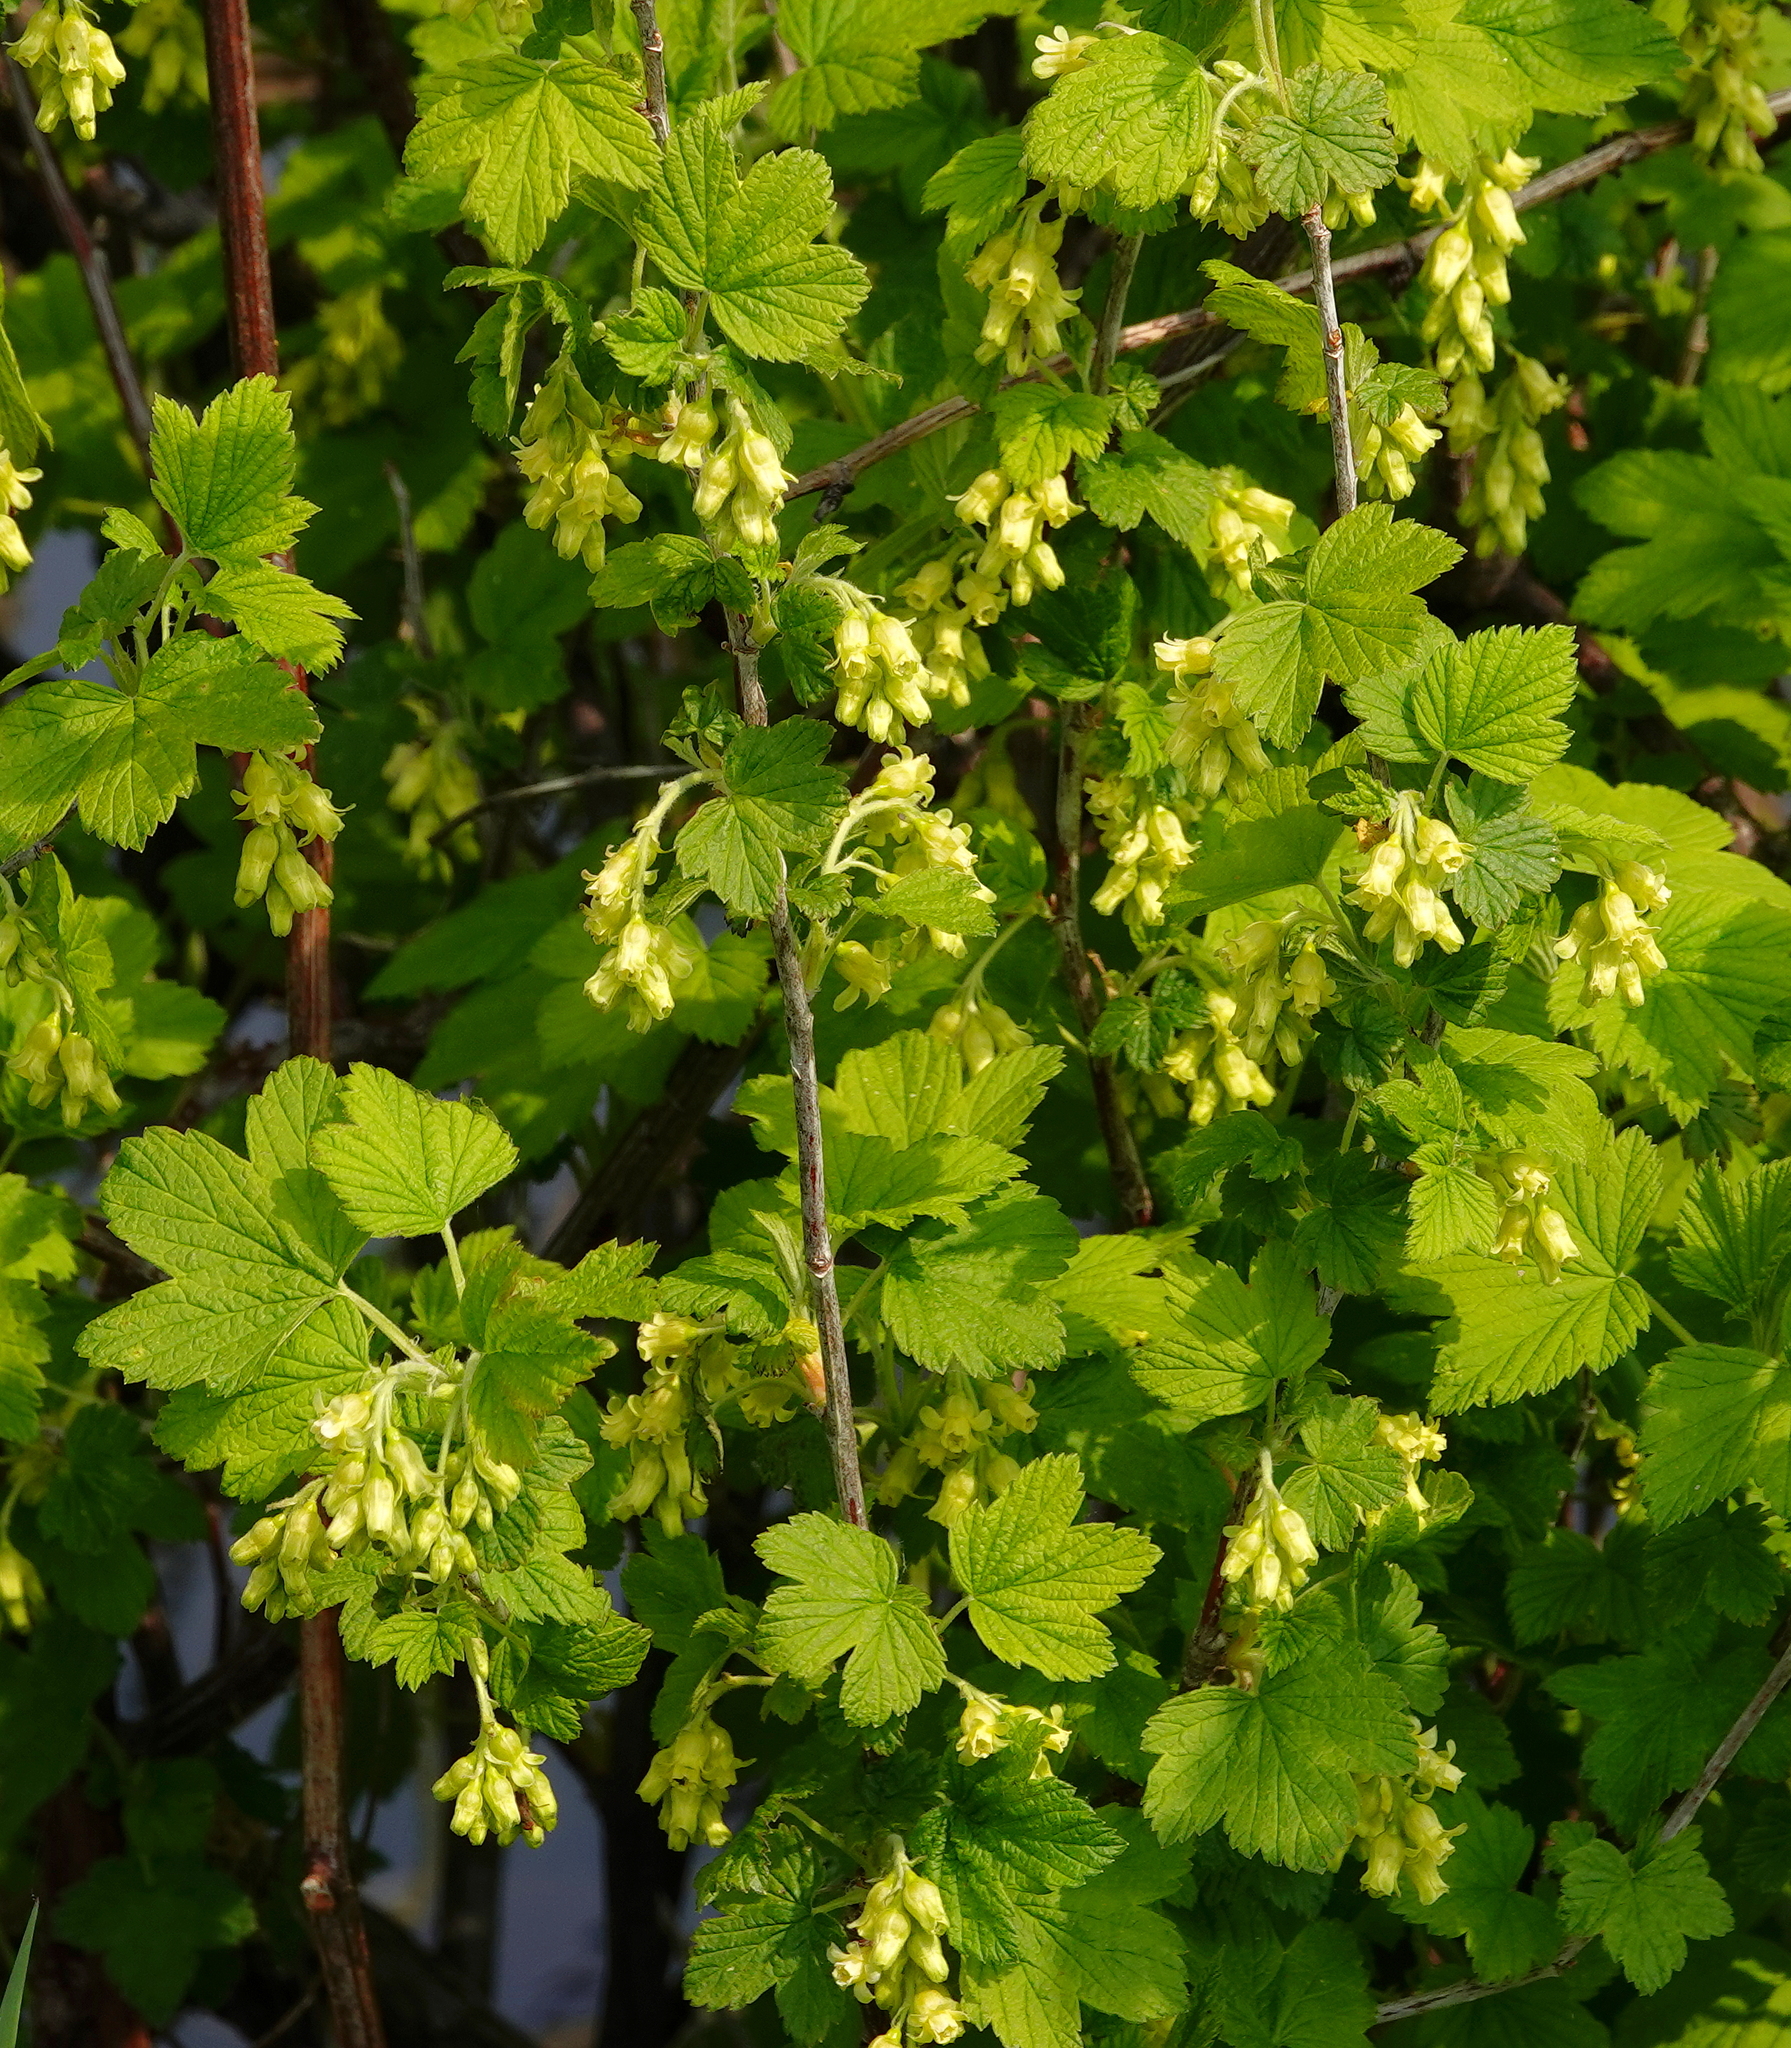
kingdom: Plantae
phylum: Tracheophyta
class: Magnoliopsida
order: Saxifragales
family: Grossulariaceae
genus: Ribes
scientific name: Ribes americanum
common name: American black currant
